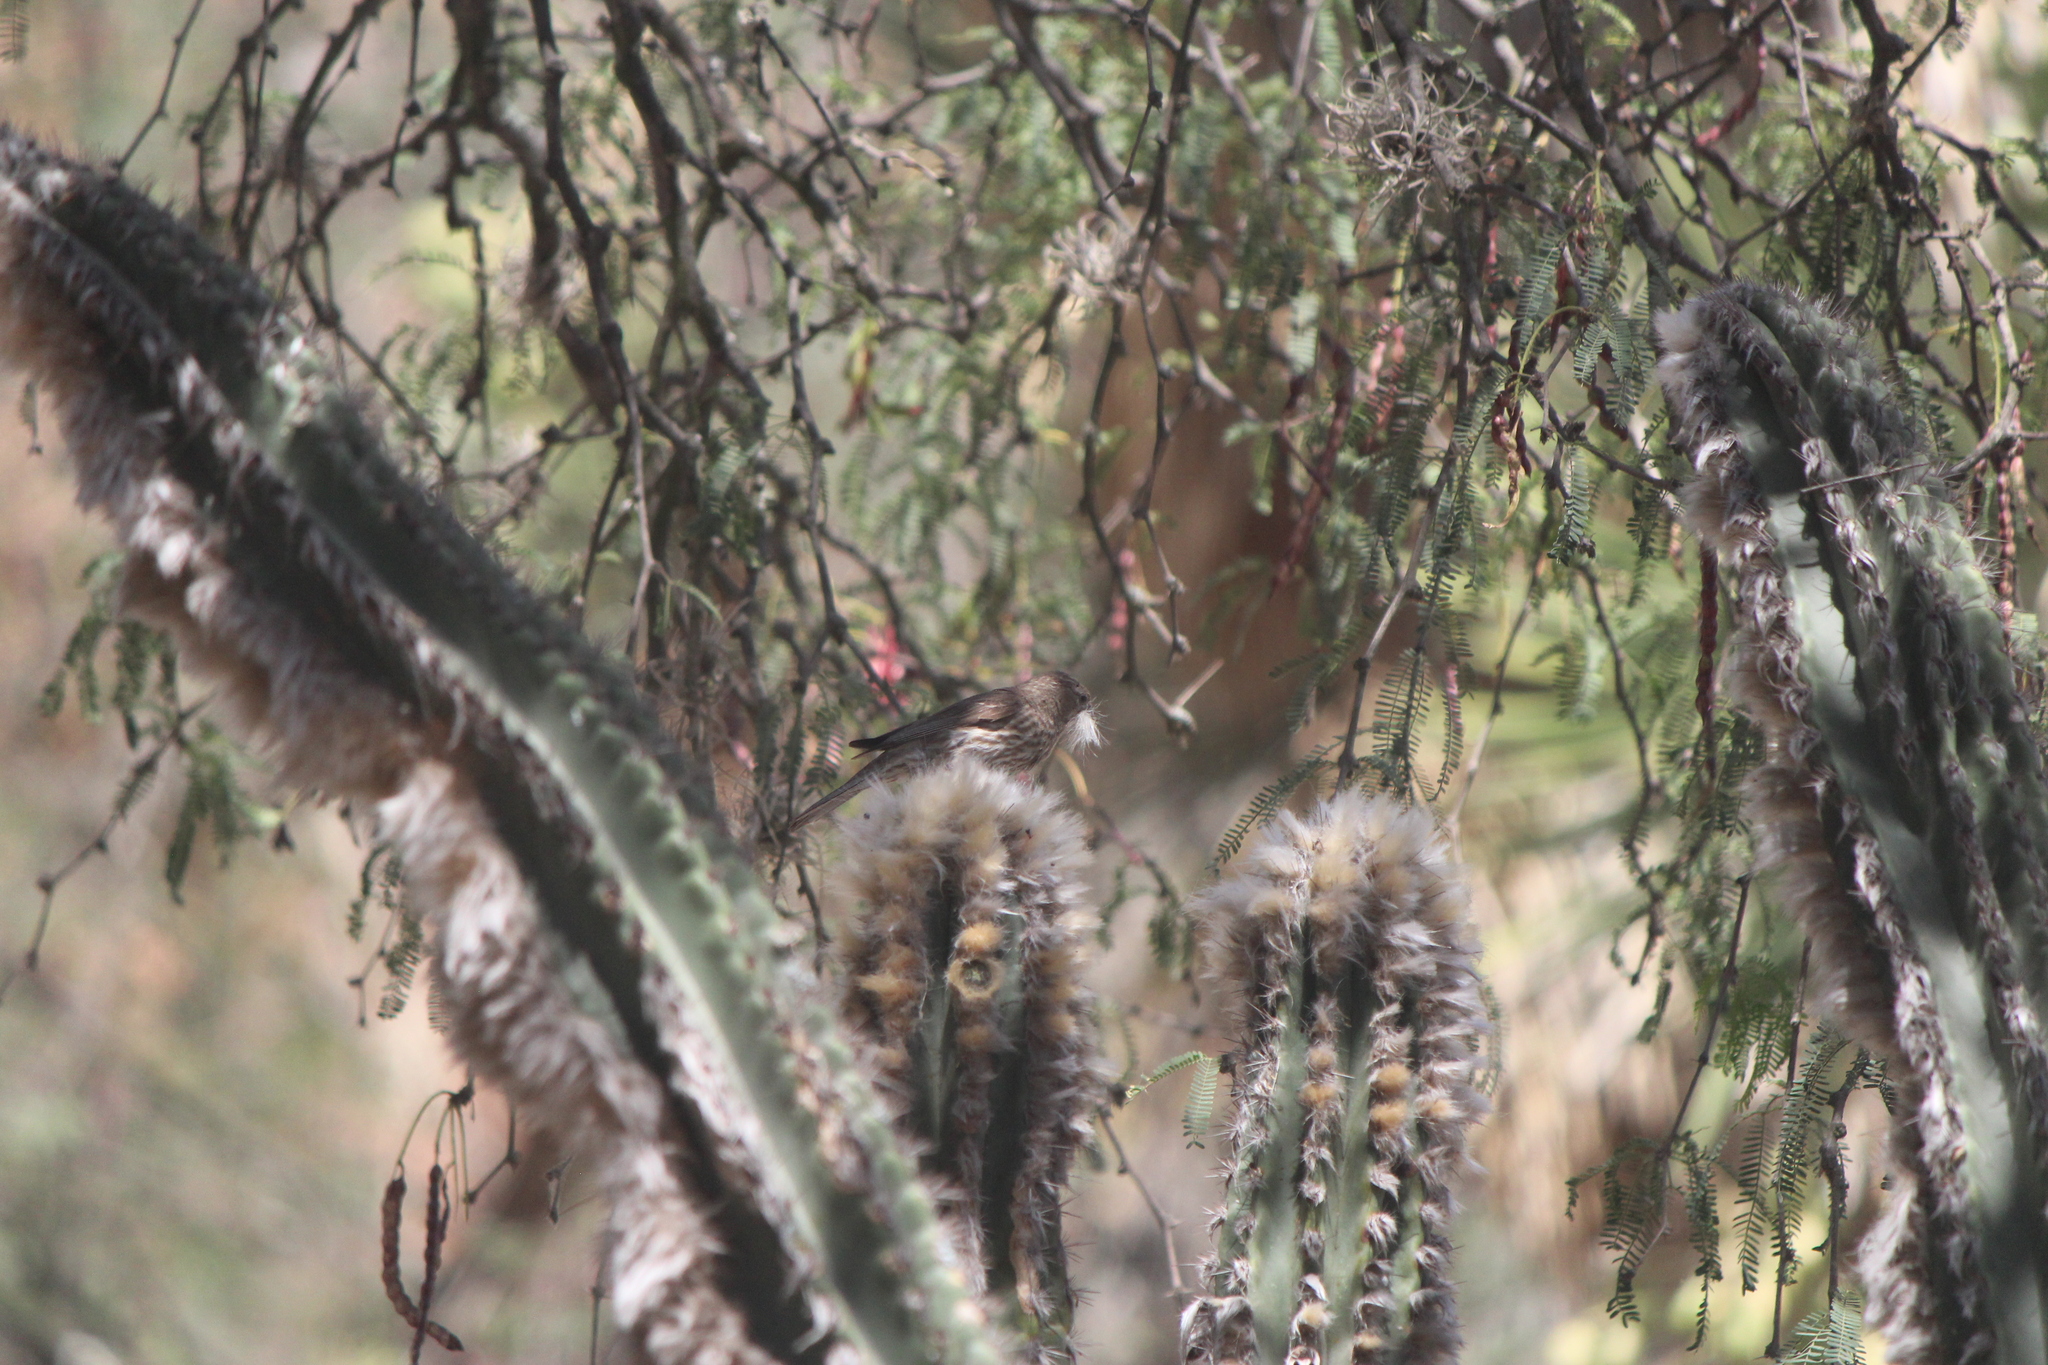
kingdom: Animalia
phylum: Chordata
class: Aves
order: Passeriformes
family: Fringillidae
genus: Haemorhous
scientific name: Haemorhous mexicanus
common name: House finch
